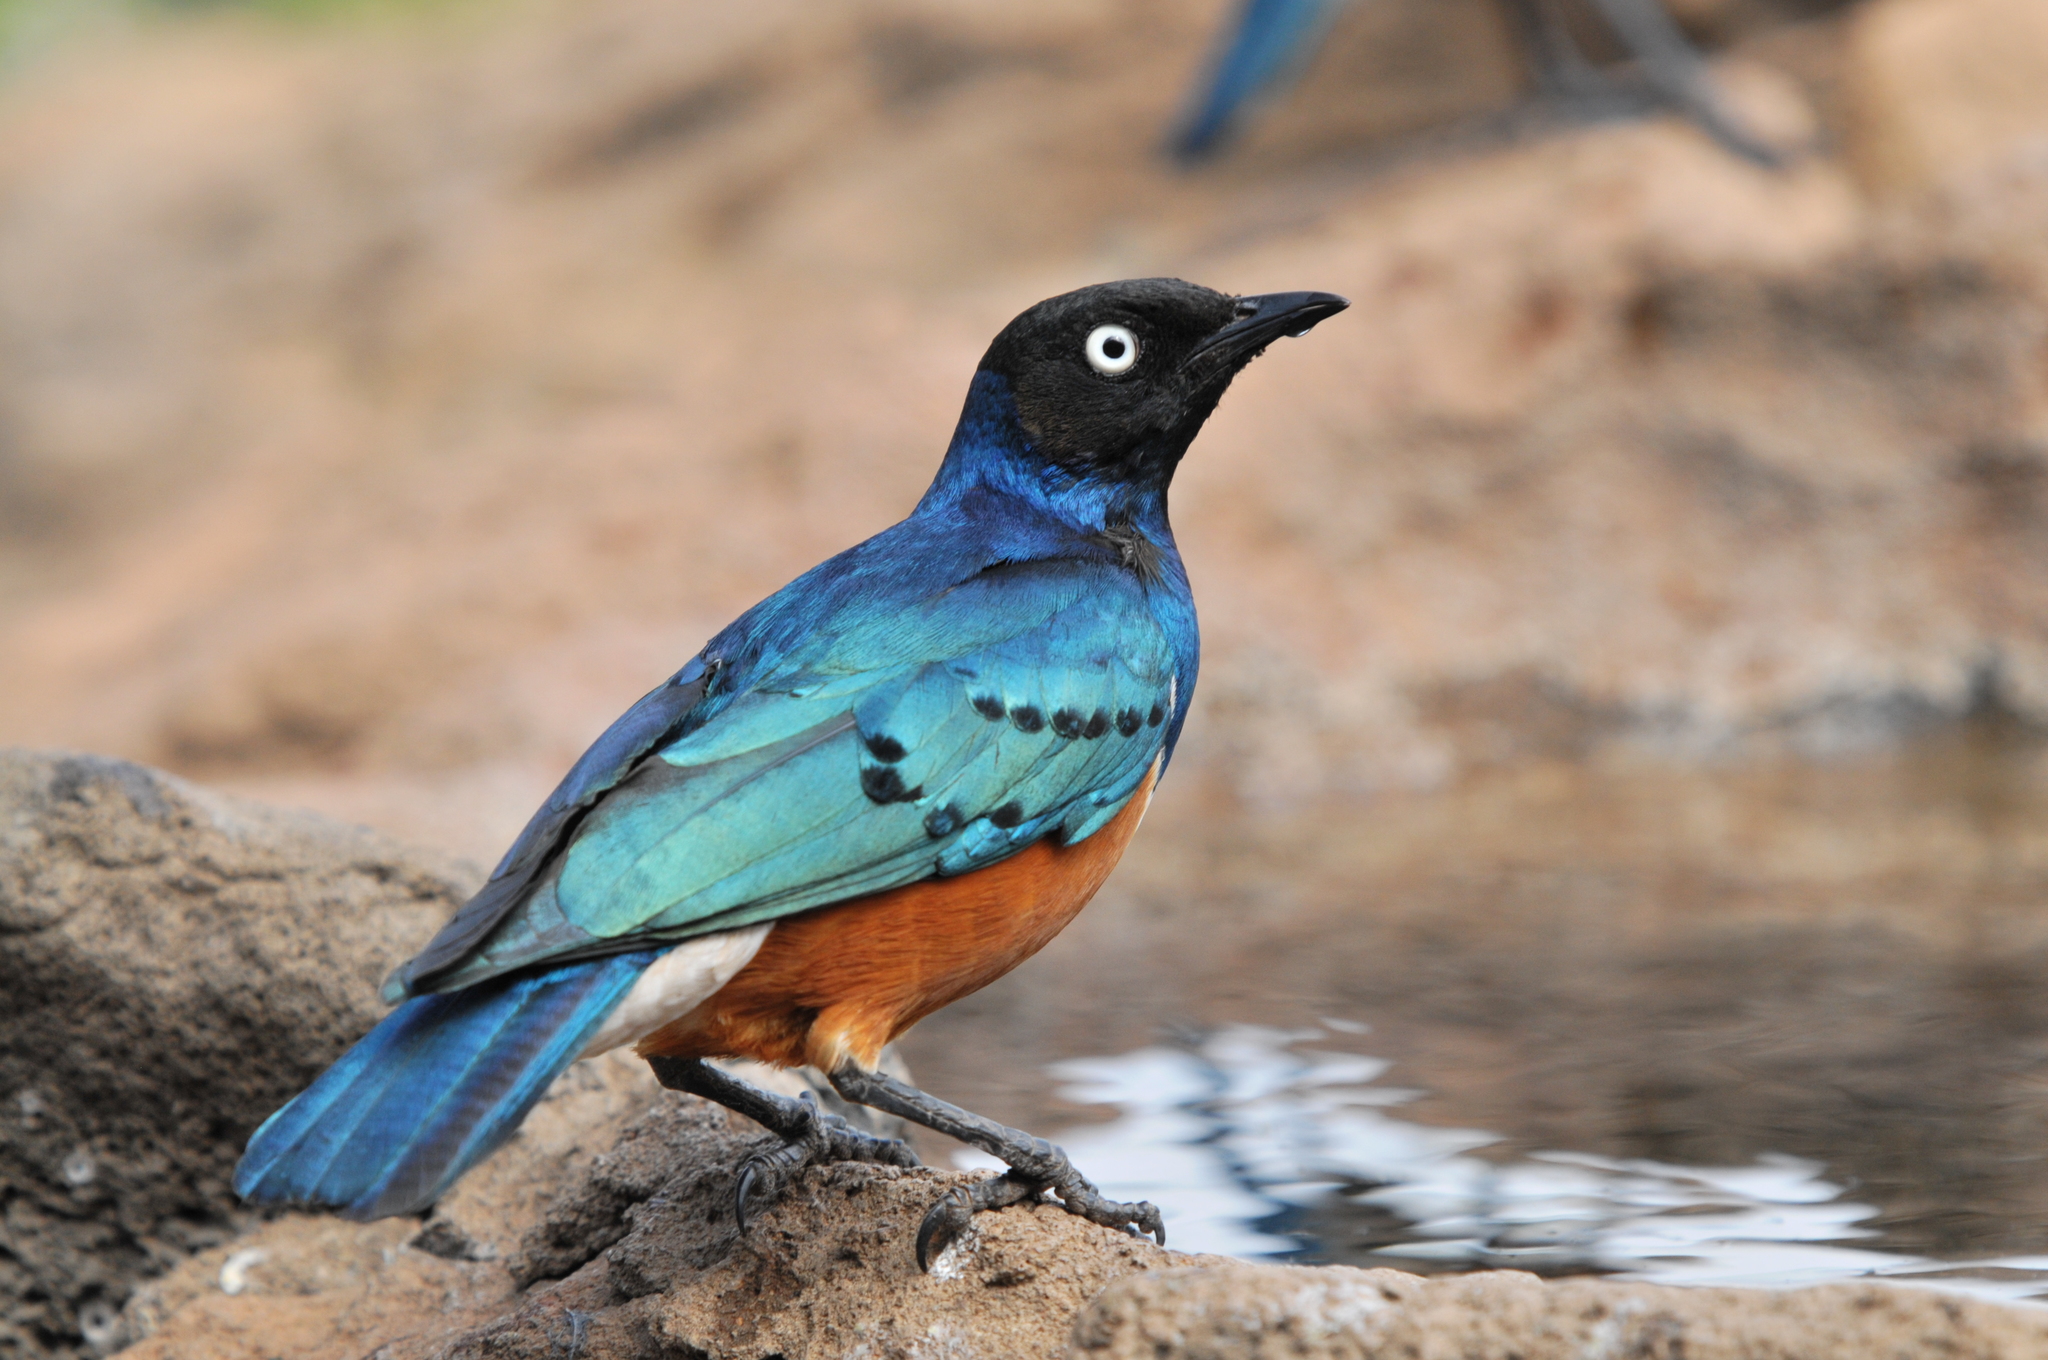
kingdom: Animalia
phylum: Chordata
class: Aves
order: Passeriformes
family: Sturnidae
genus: Lamprotornis
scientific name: Lamprotornis superbus
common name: Superb starling
